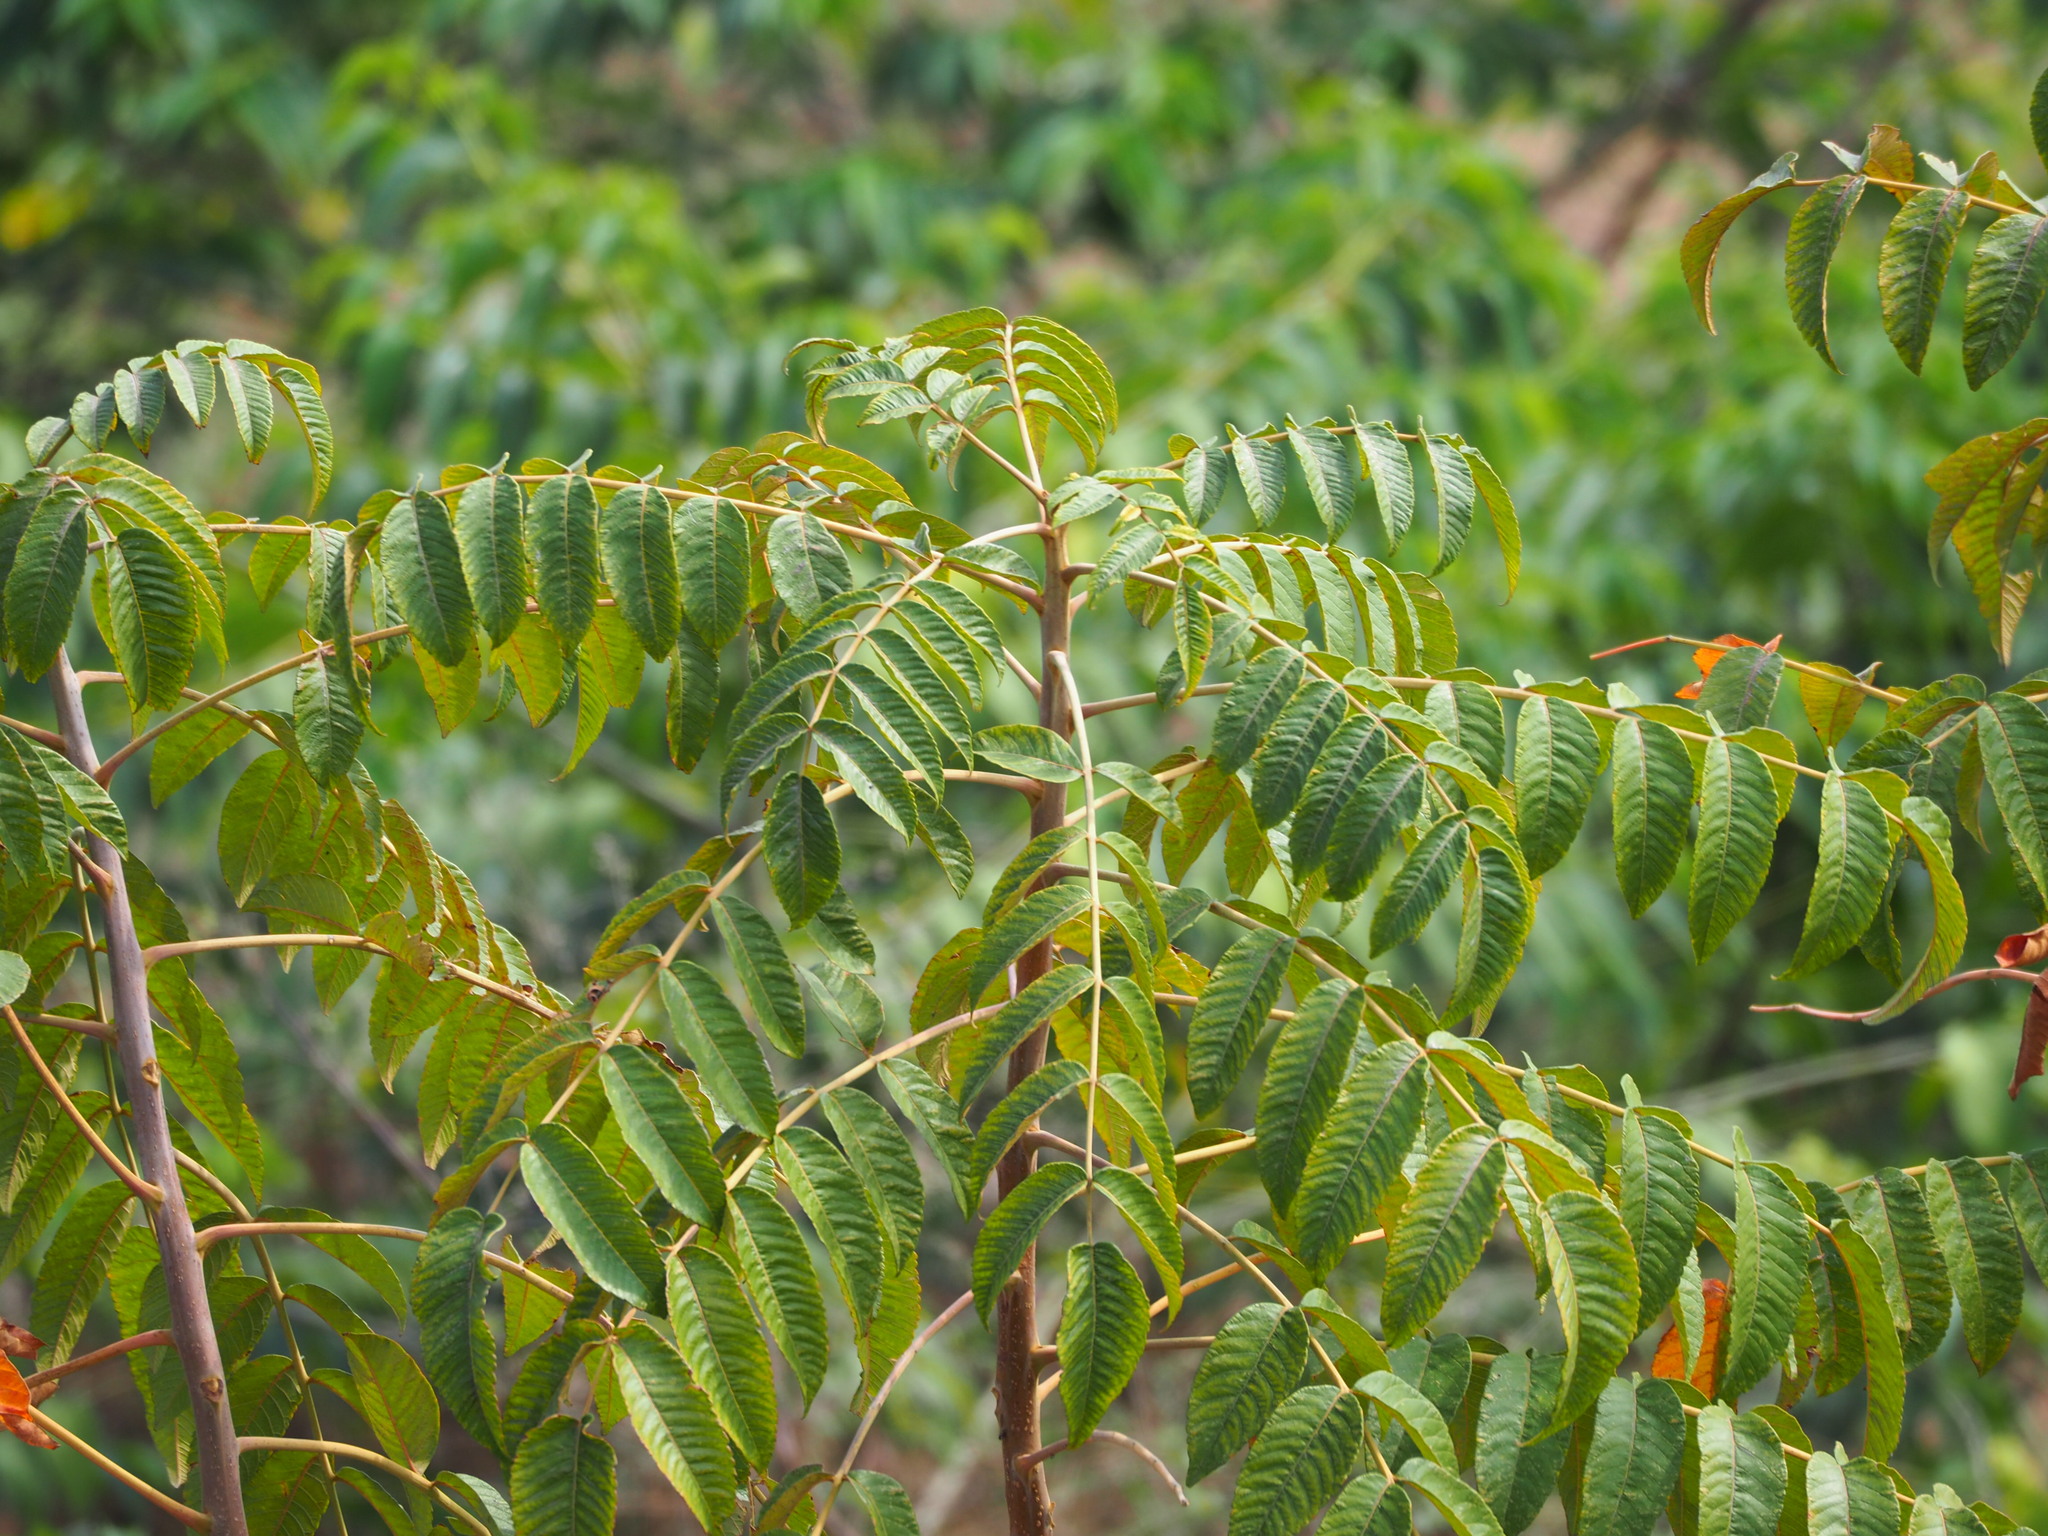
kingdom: Plantae
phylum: Tracheophyta
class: Magnoliopsida
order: Sapindales
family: Anacardiaceae
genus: Rhus
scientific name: Rhus chinensis
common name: Chinese gall
